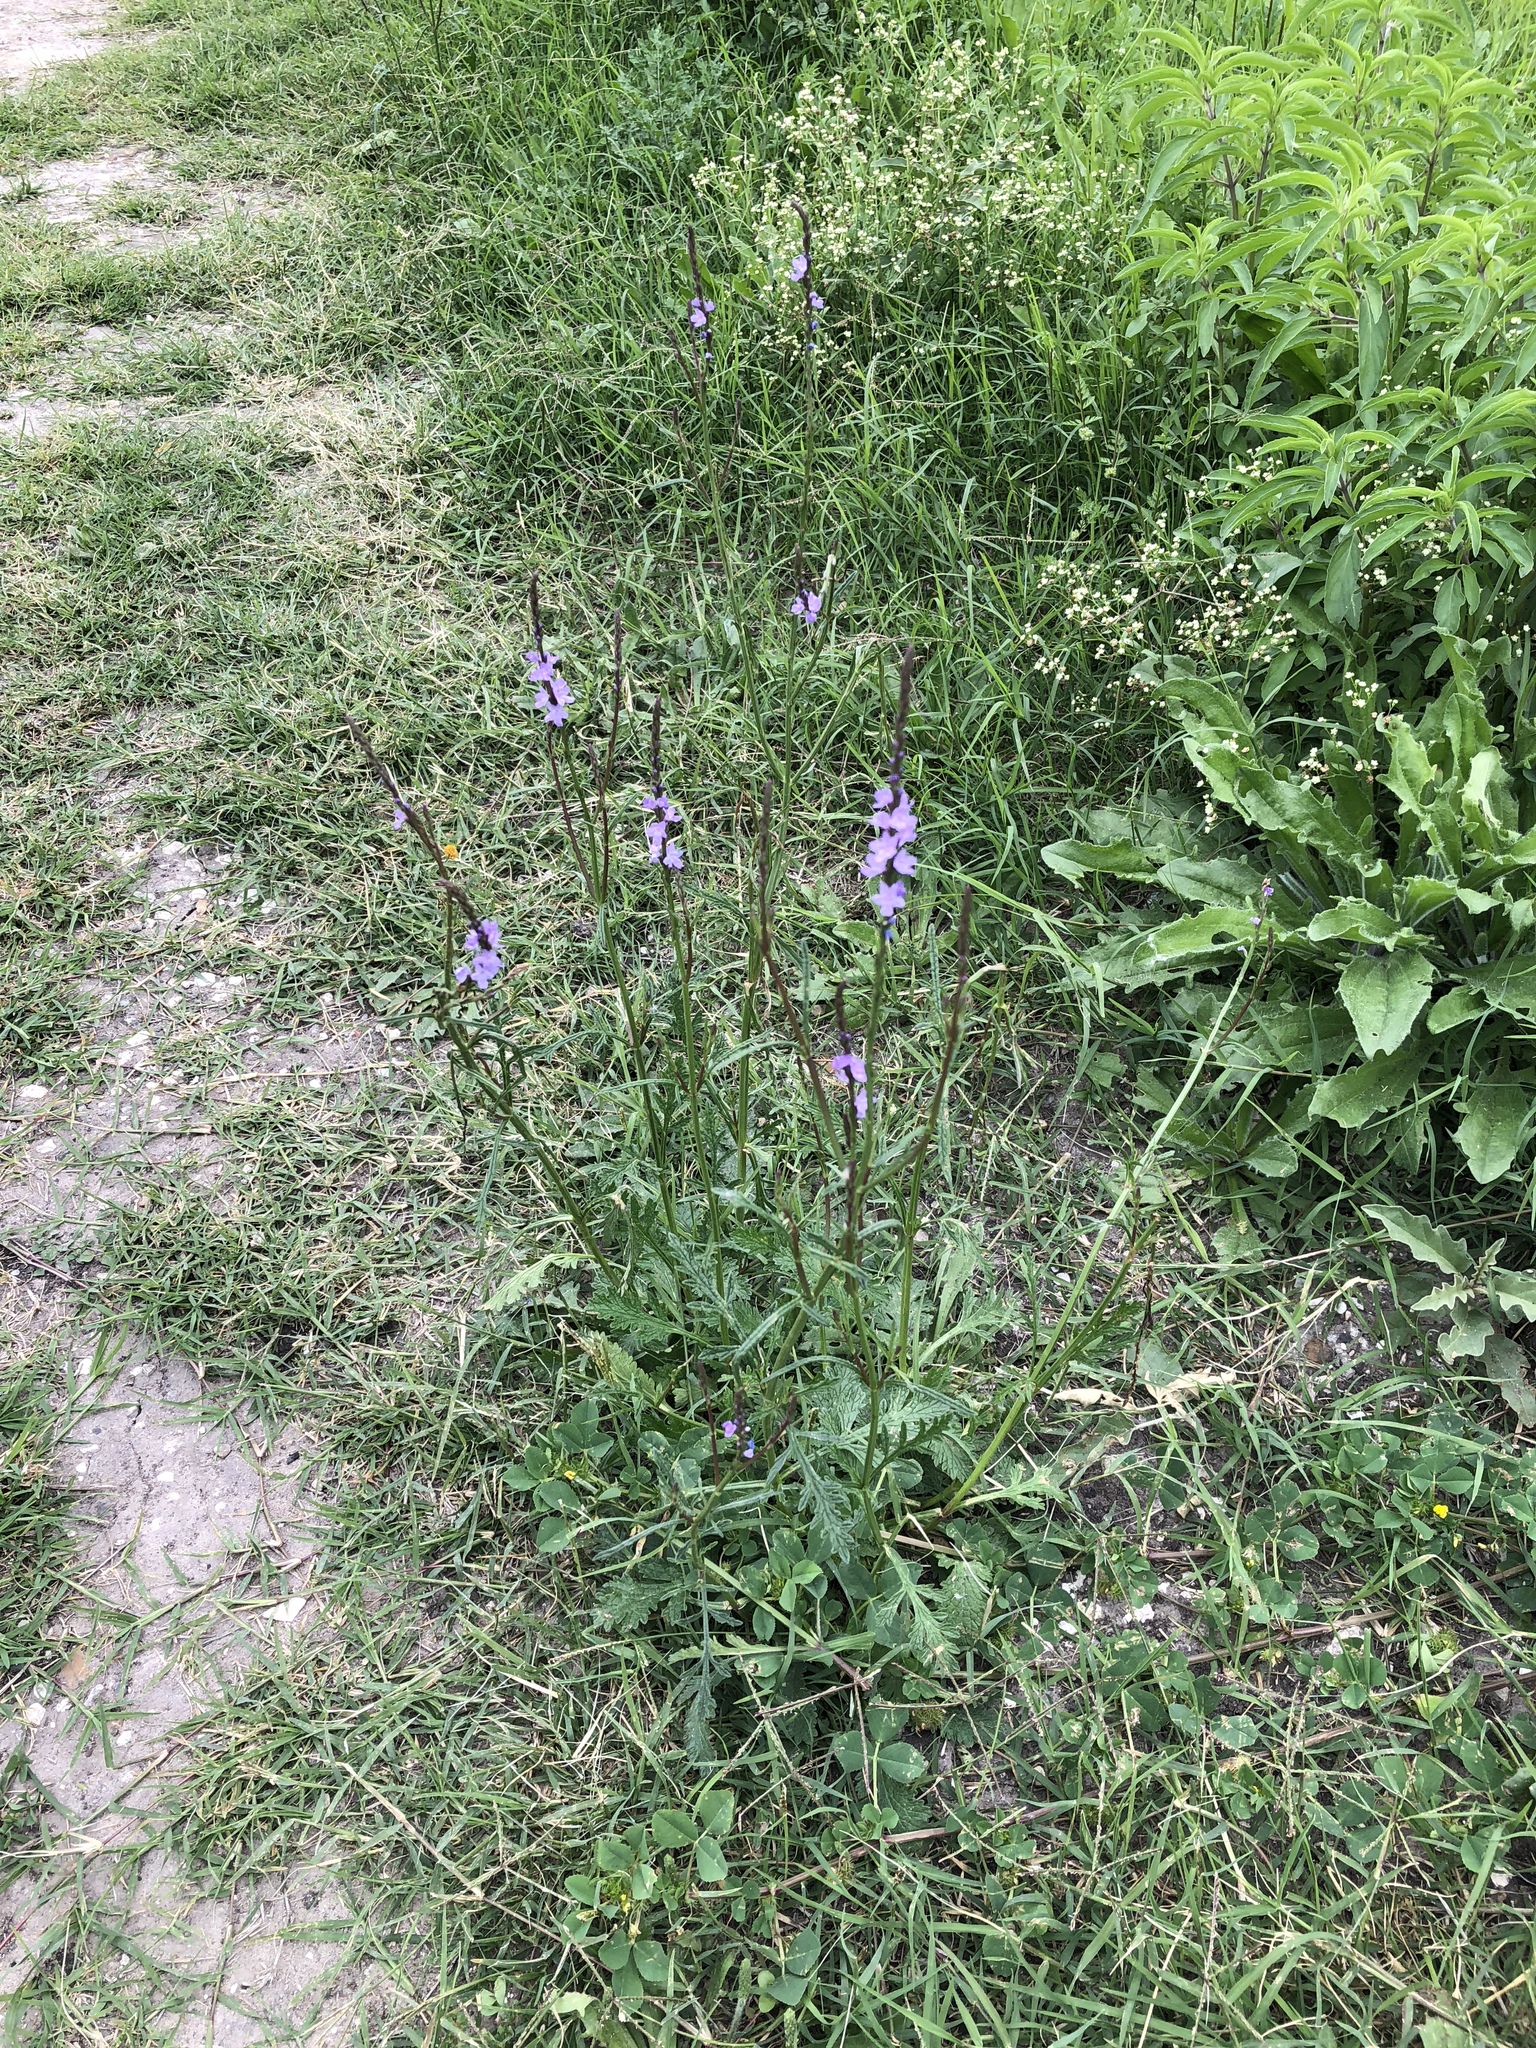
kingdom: Plantae
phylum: Tracheophyta
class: Magnoliopsida
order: Lamiales
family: Verbenaceae
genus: Verbena
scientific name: Verbena xutha
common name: Gulf vervain
